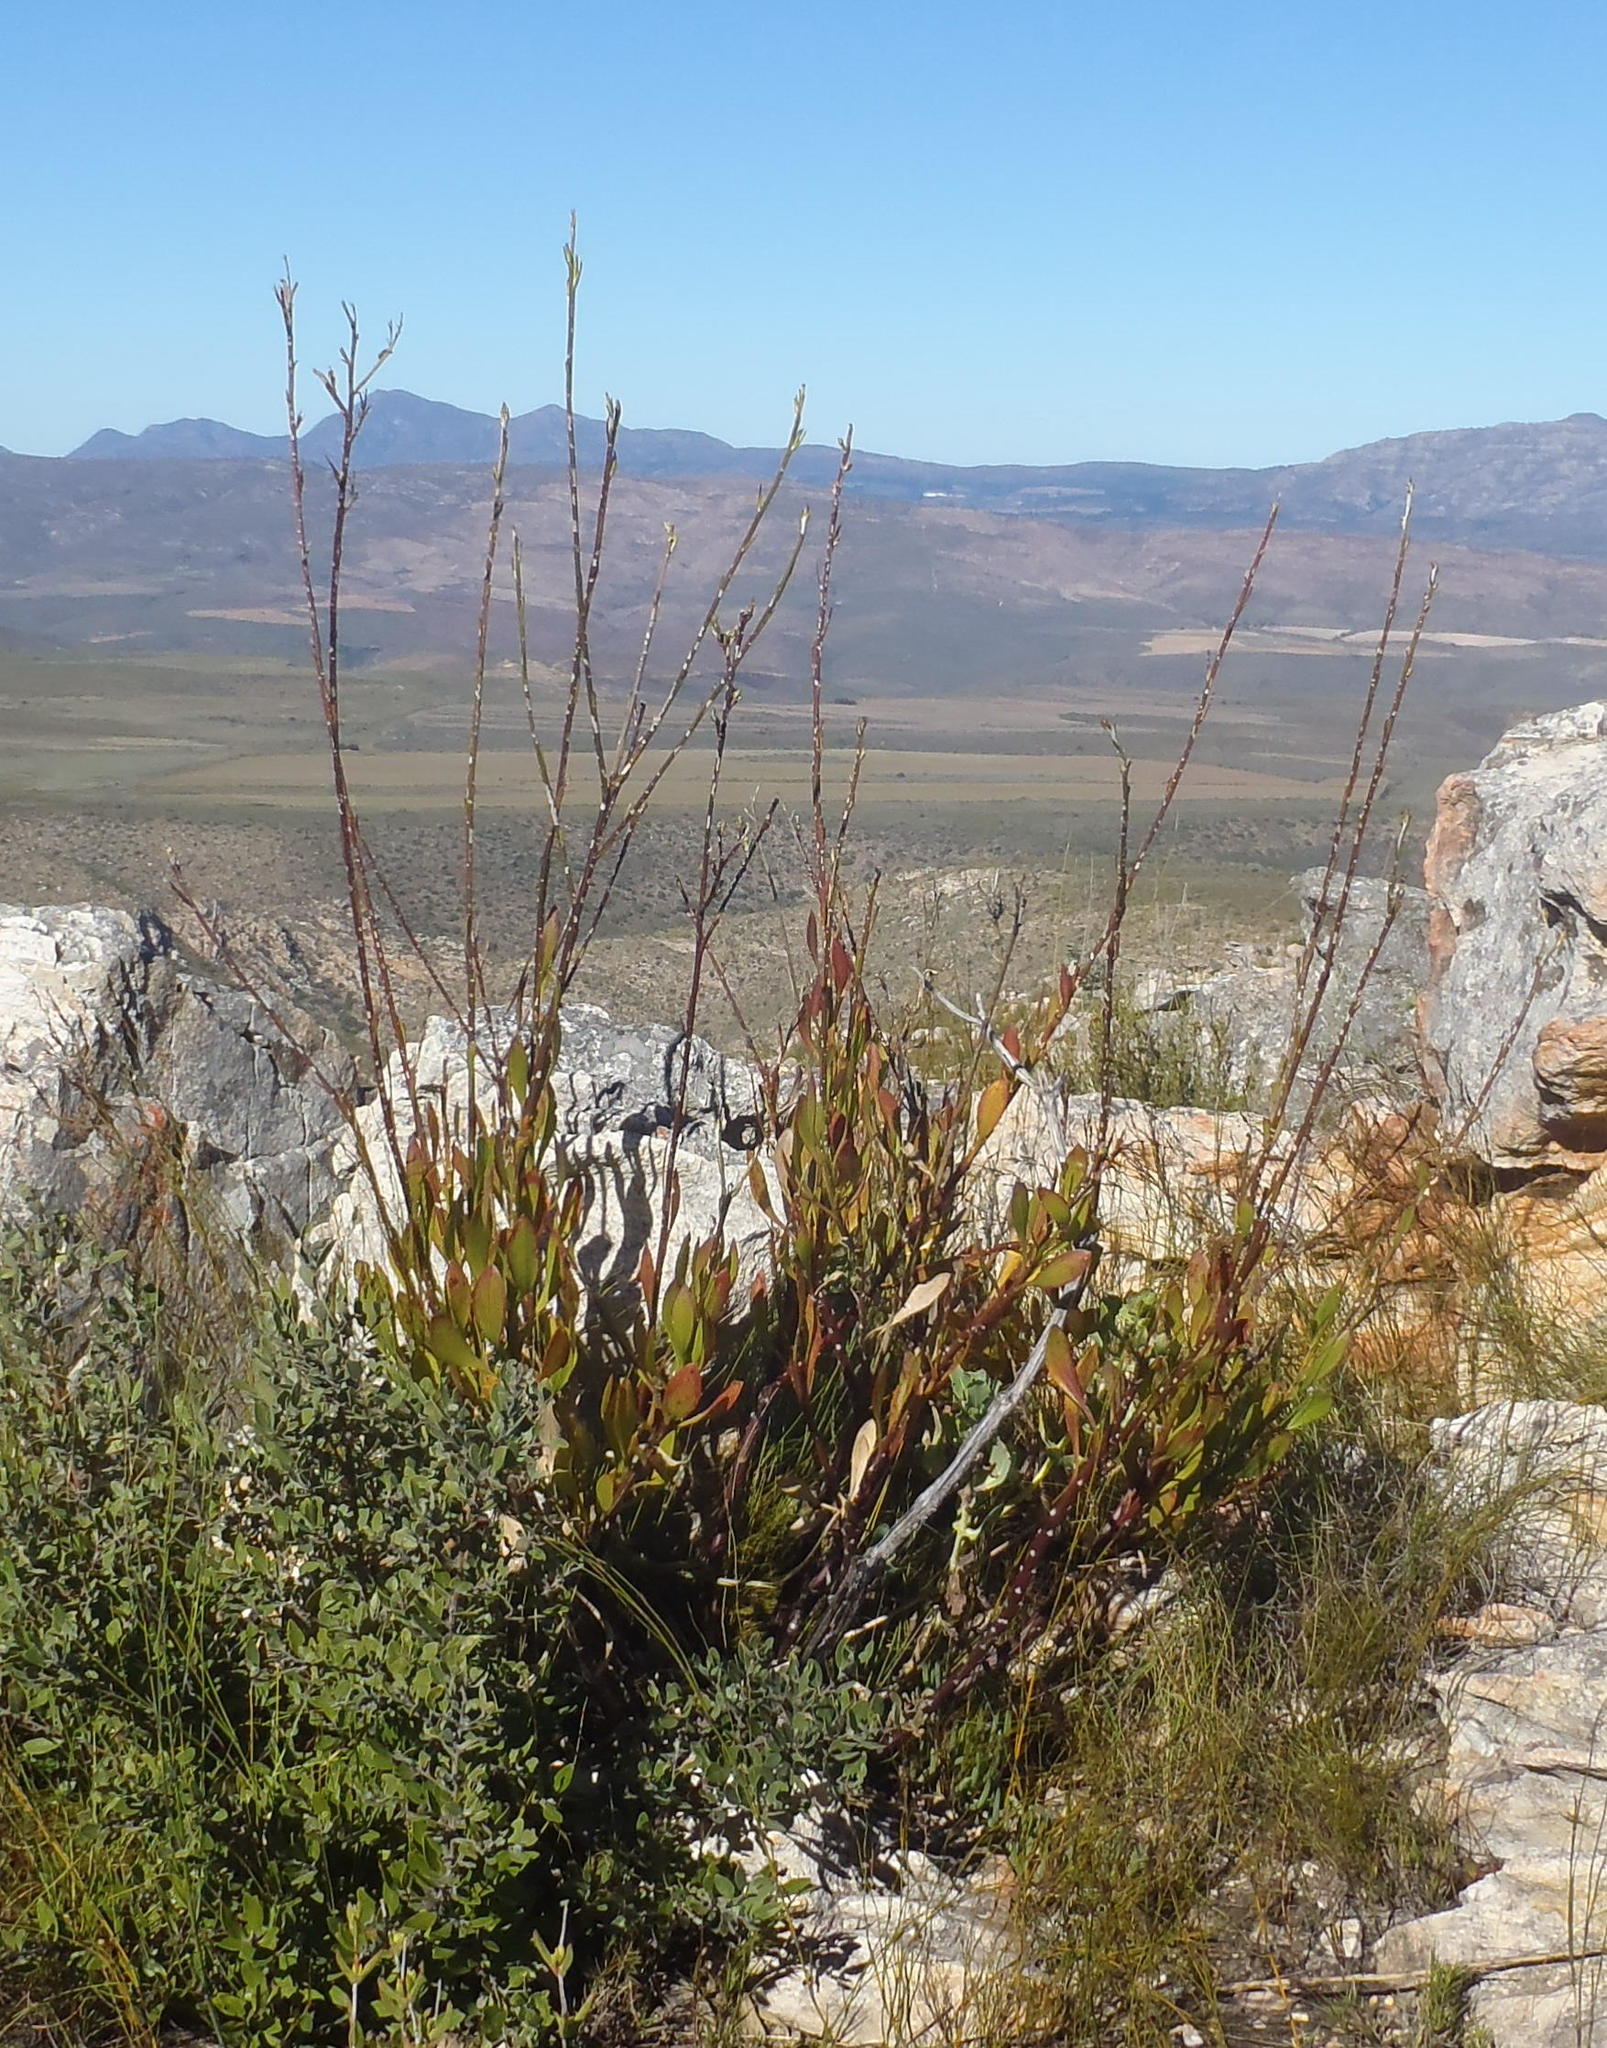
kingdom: Plantae
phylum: Tracheophyta
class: Magnoliopsida
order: Asterales
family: Asteraceae
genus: Osteospermum
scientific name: Osteospermum junceum
